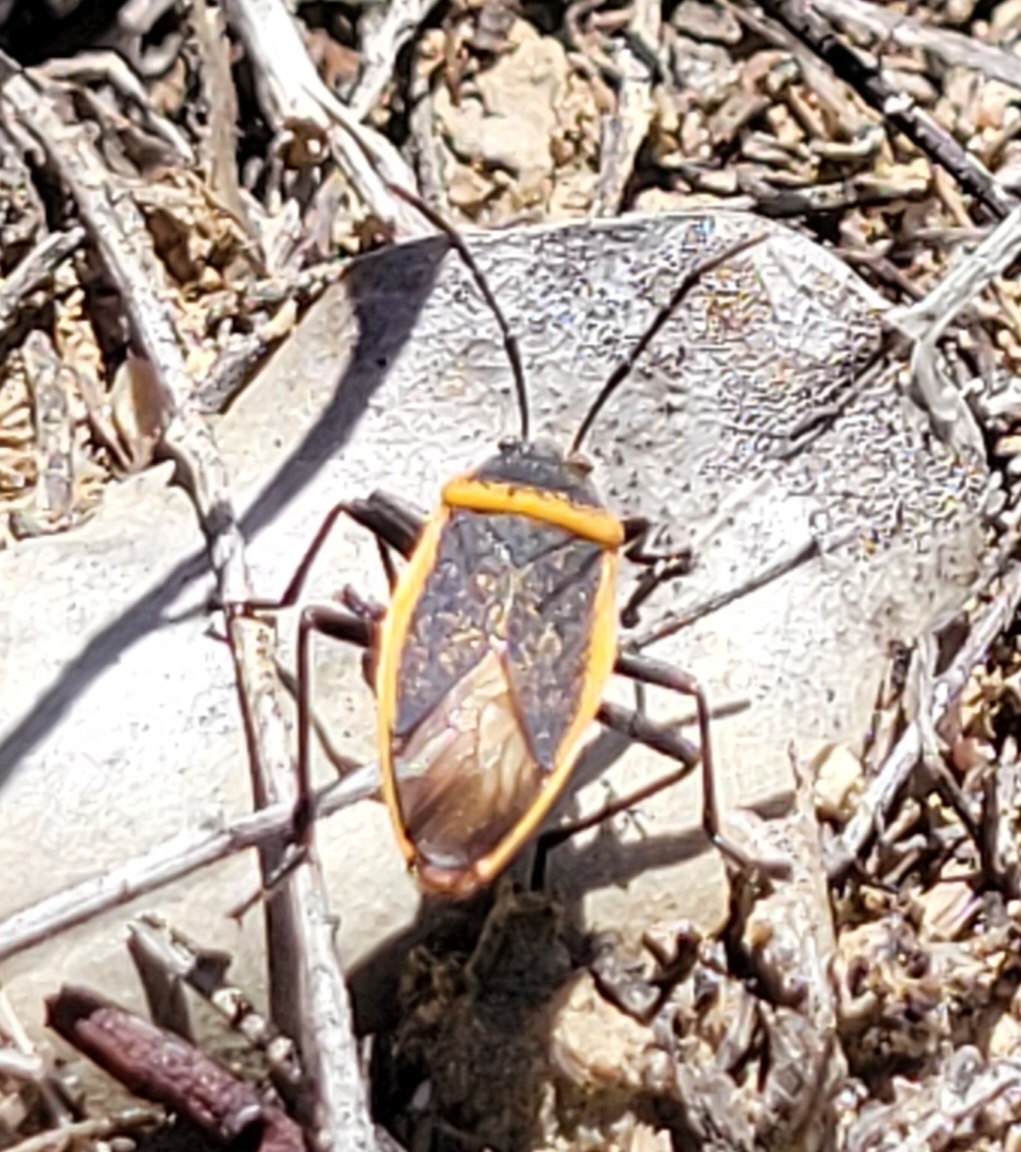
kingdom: Animalia
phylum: Arthropoda
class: Insecta
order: Hemiptera
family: Largidae
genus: Largus
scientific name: Largus californicus
